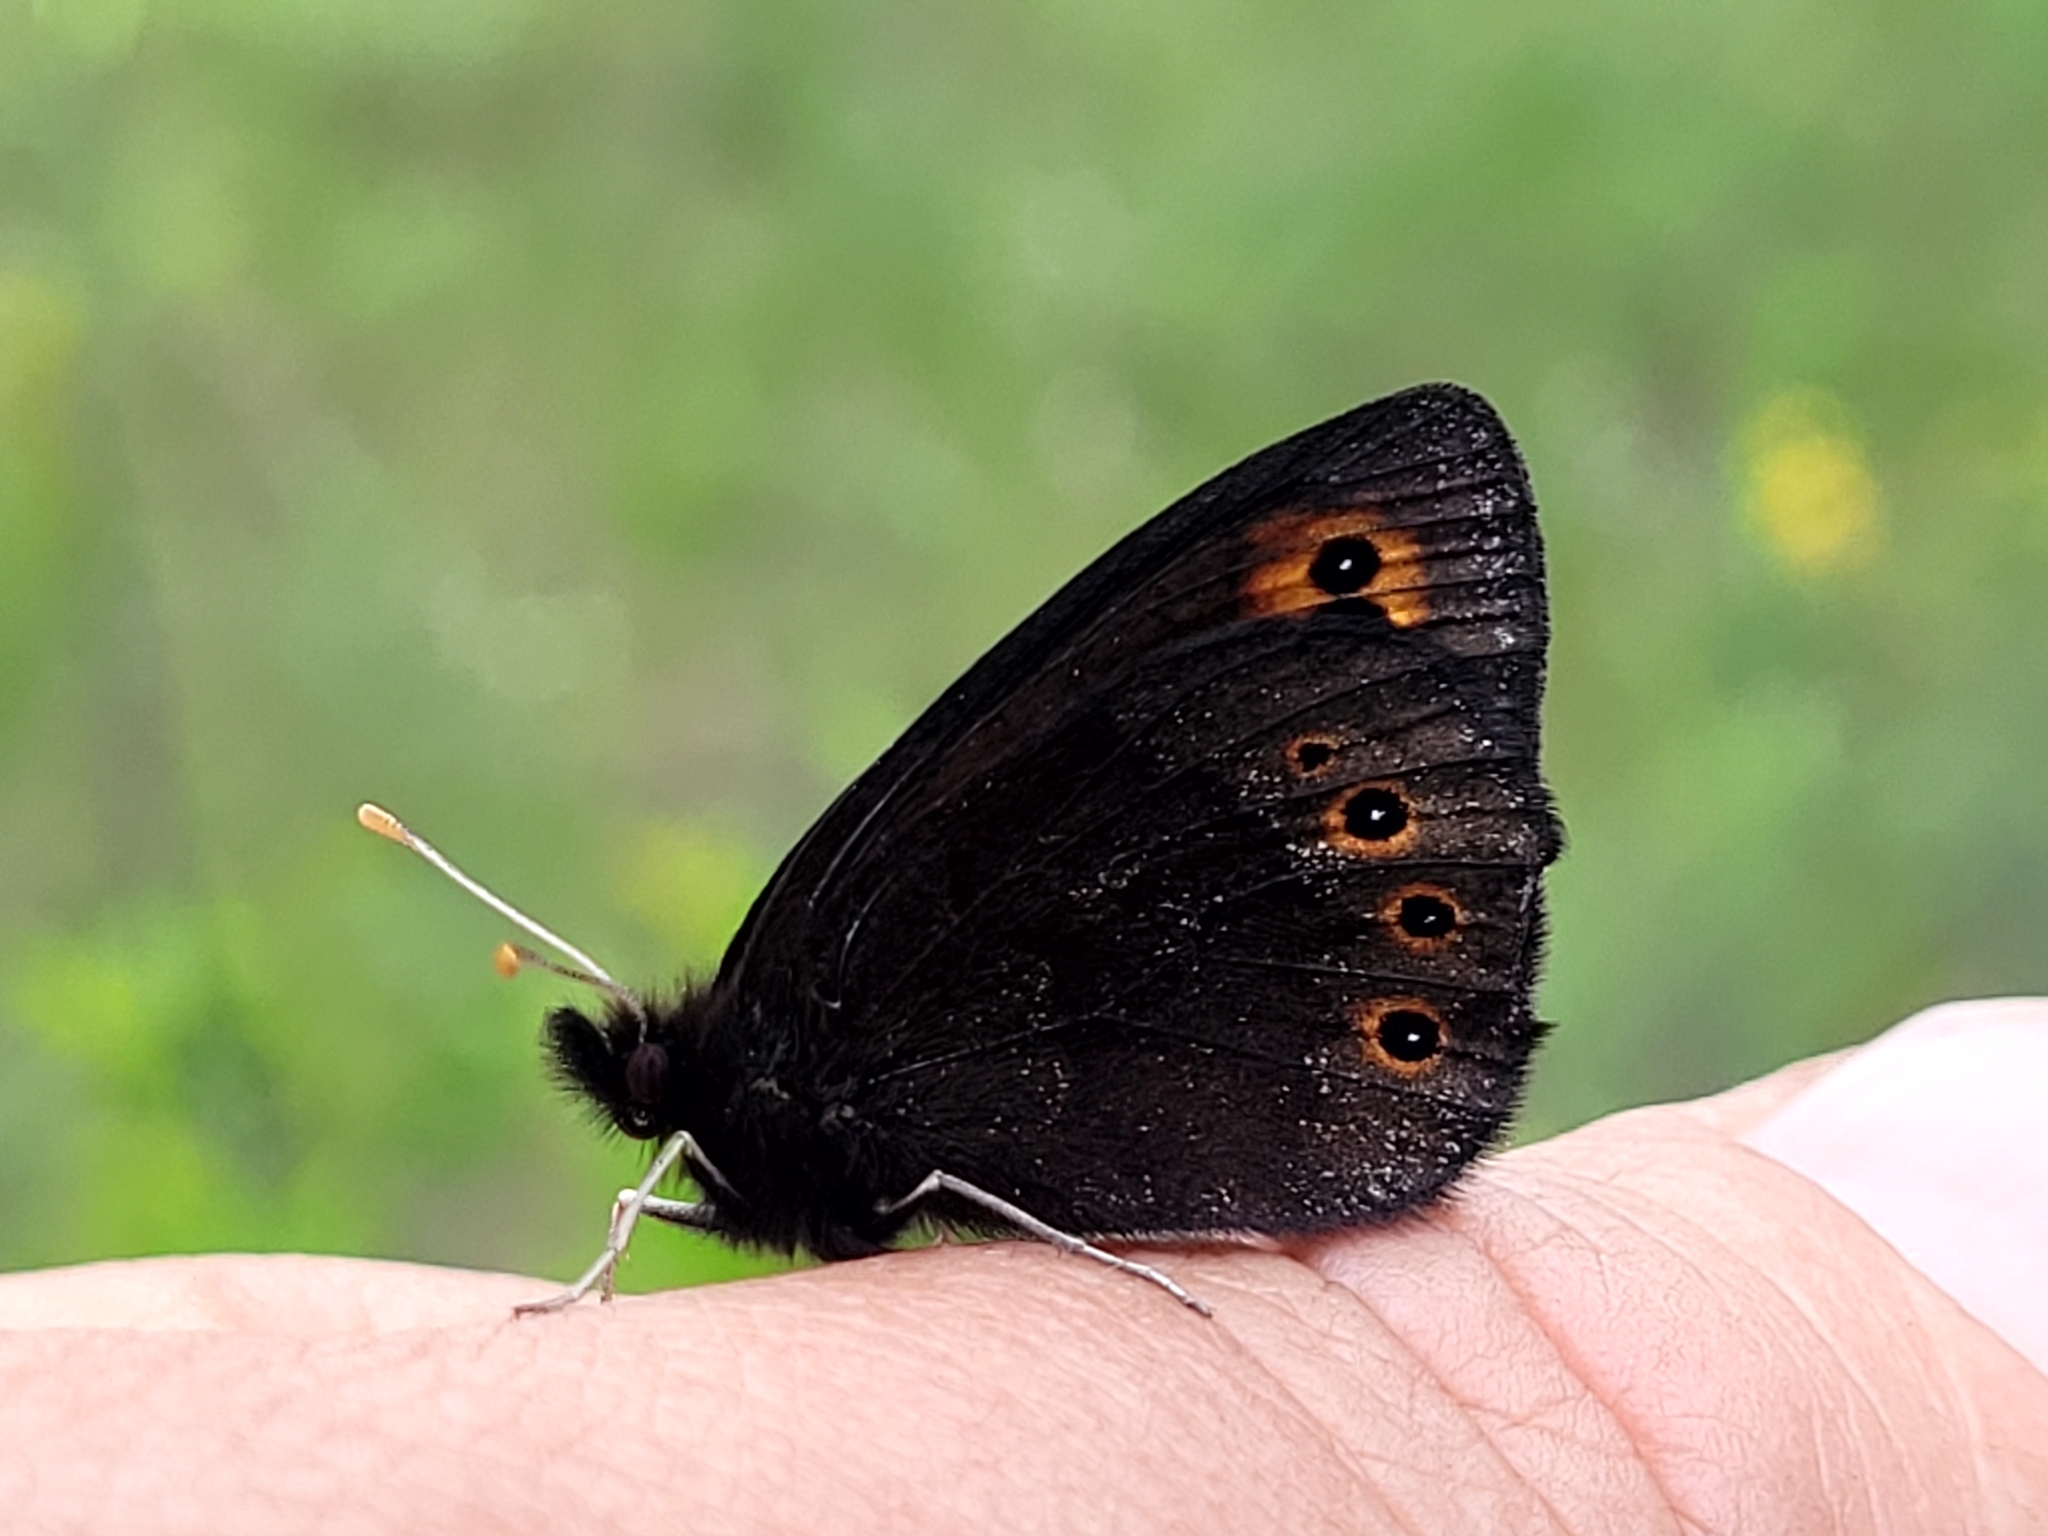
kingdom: Animalia
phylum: Arthropoda
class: Insecta
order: Lepidoptera
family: Nymphalidae
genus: Erebia
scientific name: Erebia epipsodea
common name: Common alpine
